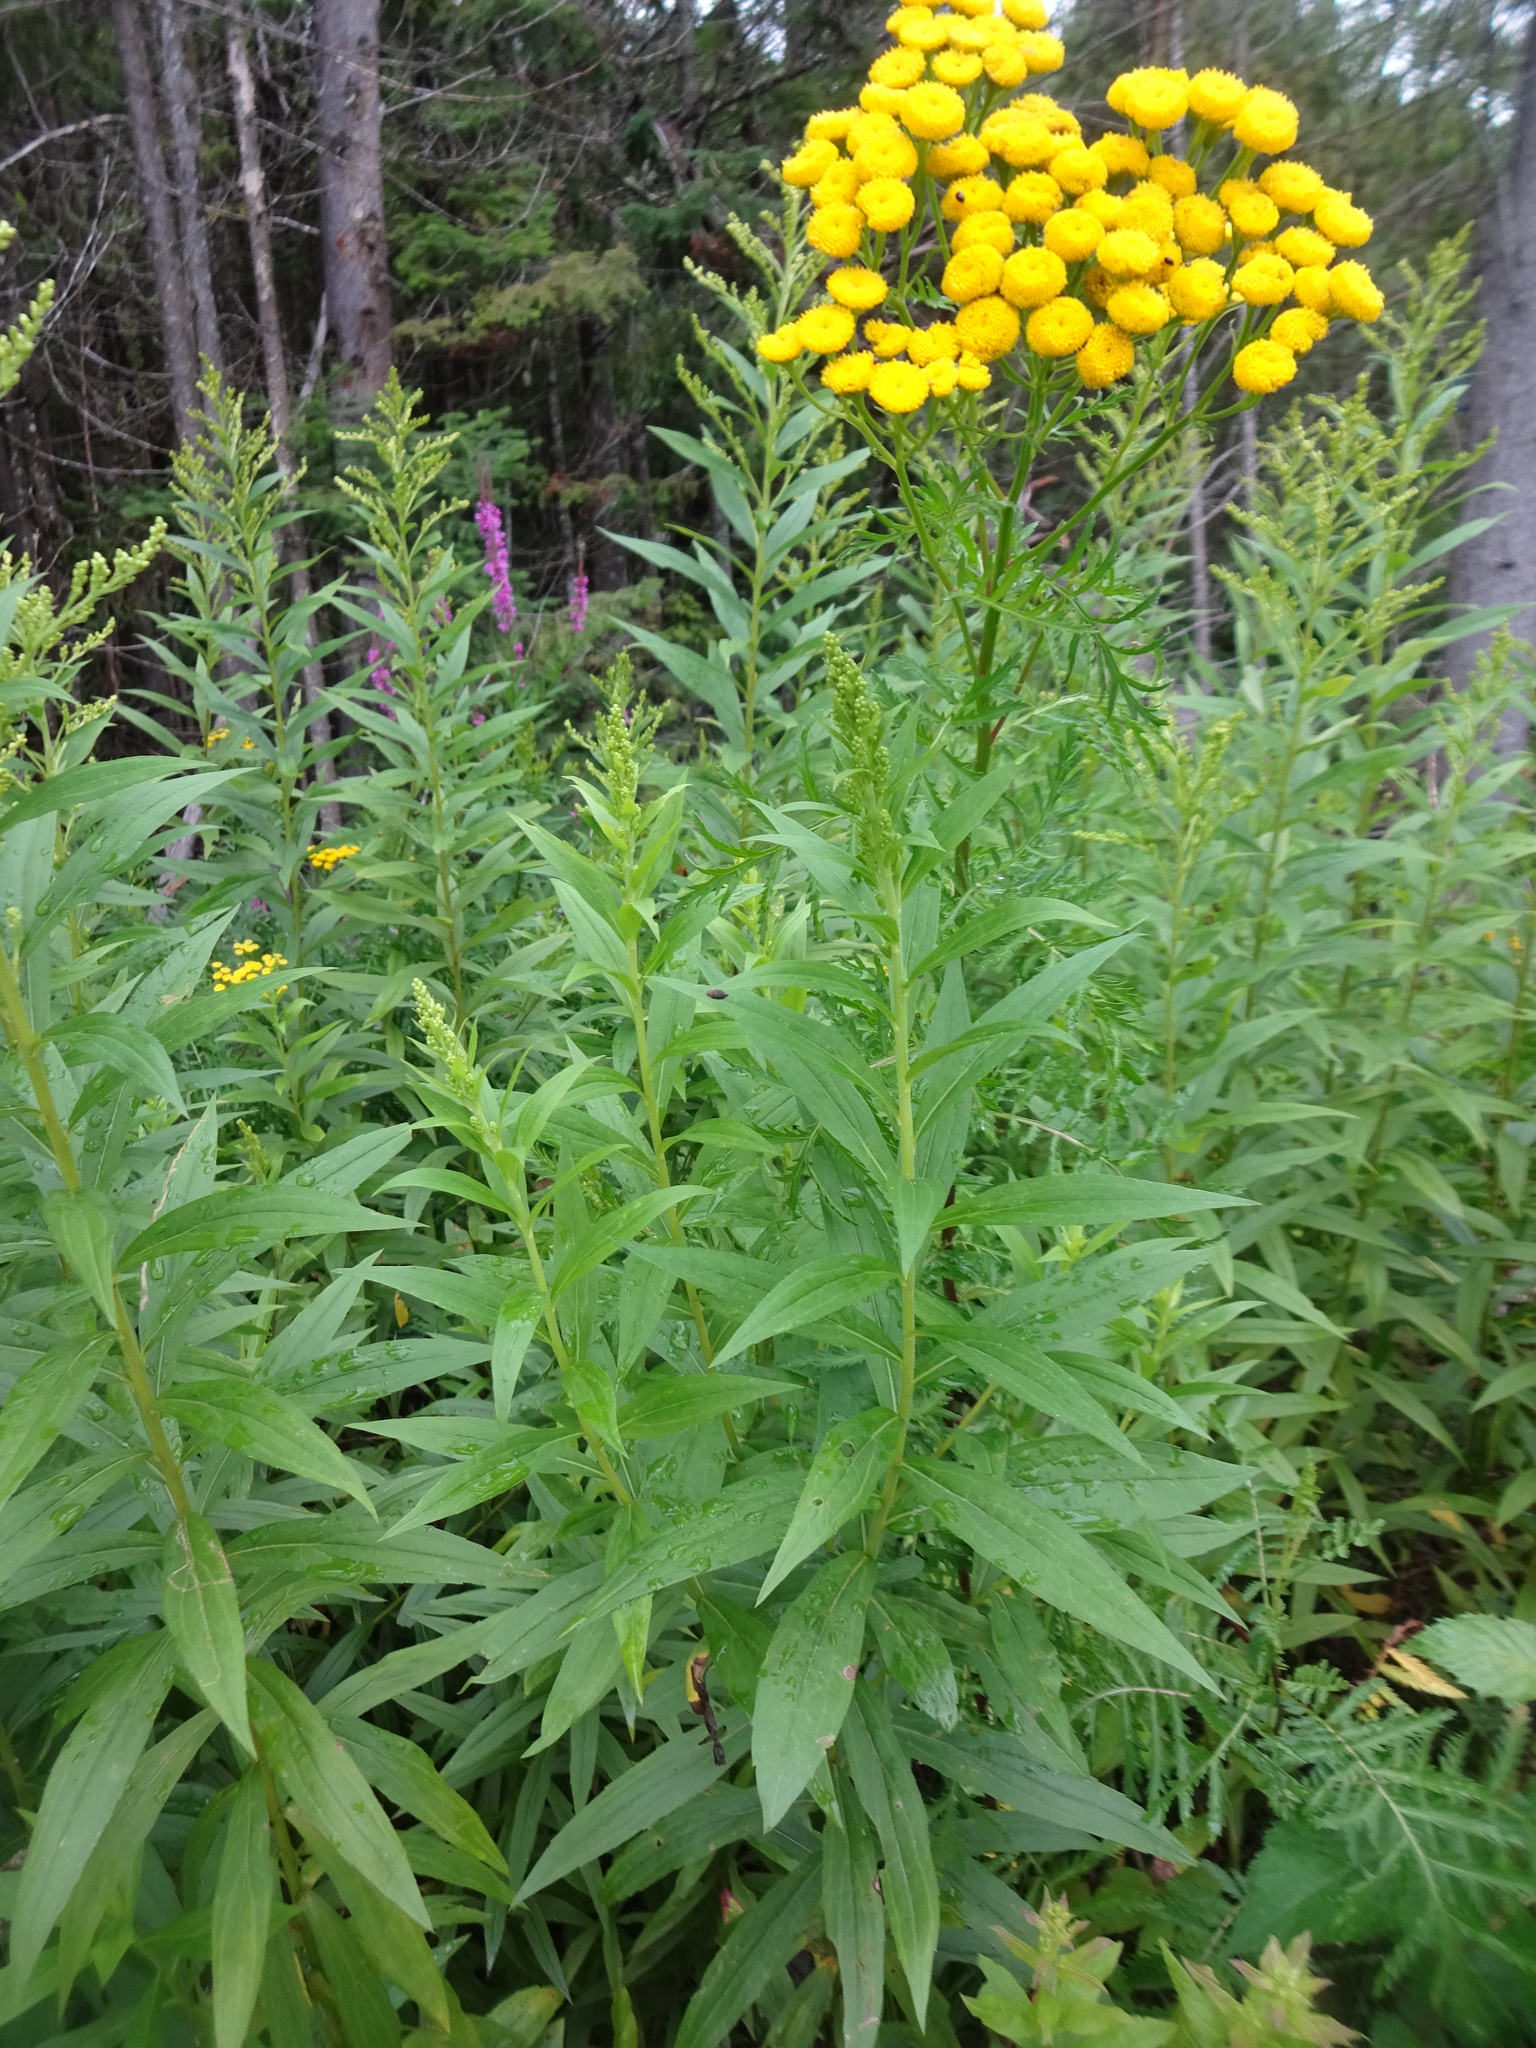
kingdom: Plantae
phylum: Tracheophyta
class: Magnoliopsida
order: Asterales
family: Asteraceae
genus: Tanacetum
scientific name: Tanacetum vulgare
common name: Common tansy
